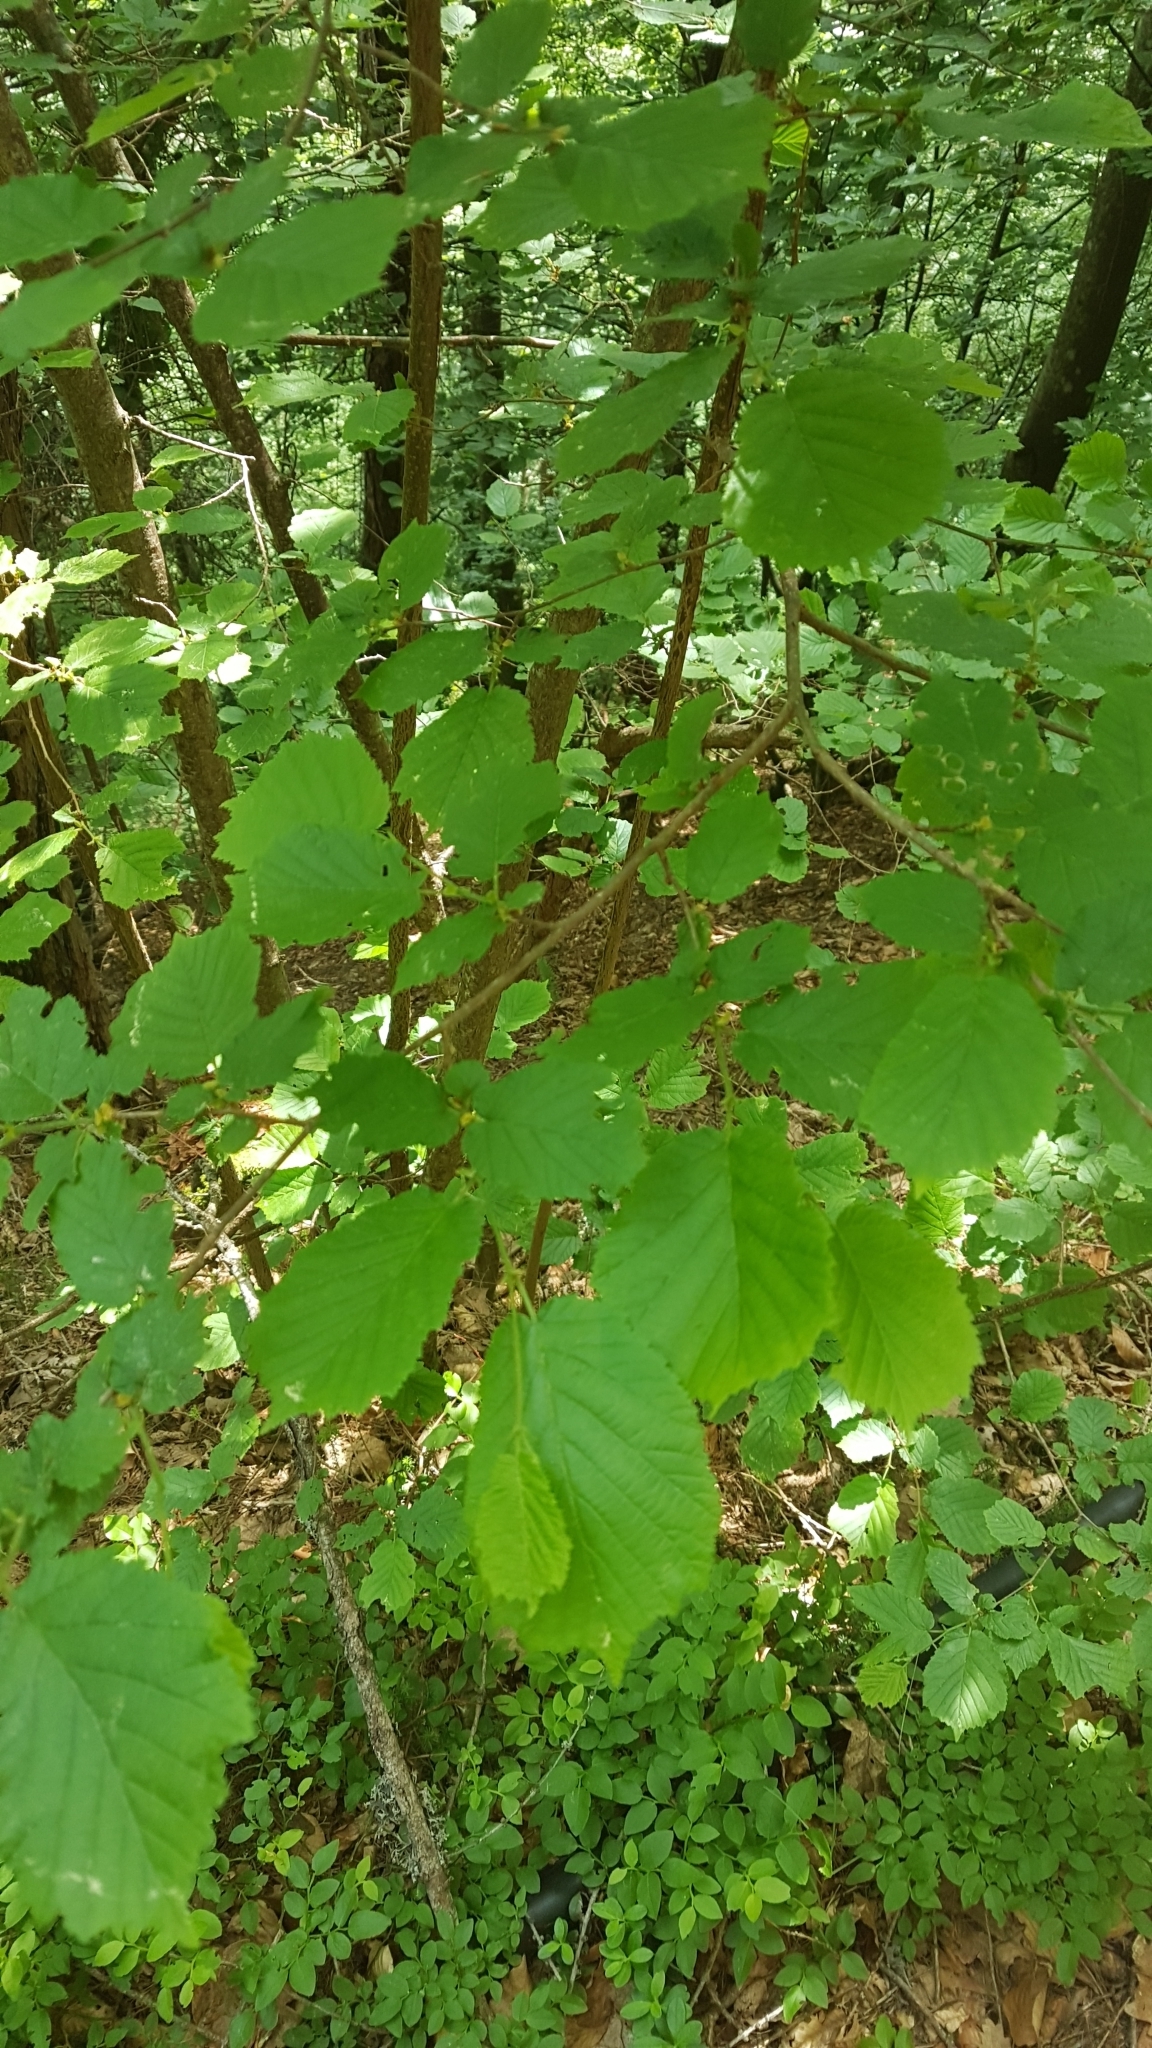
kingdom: Plantae
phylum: Tracheophyta
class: Magnoliopsida
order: Fagales
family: Betulaceae
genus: Corylus
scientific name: Corylus avellana
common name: European hazel
